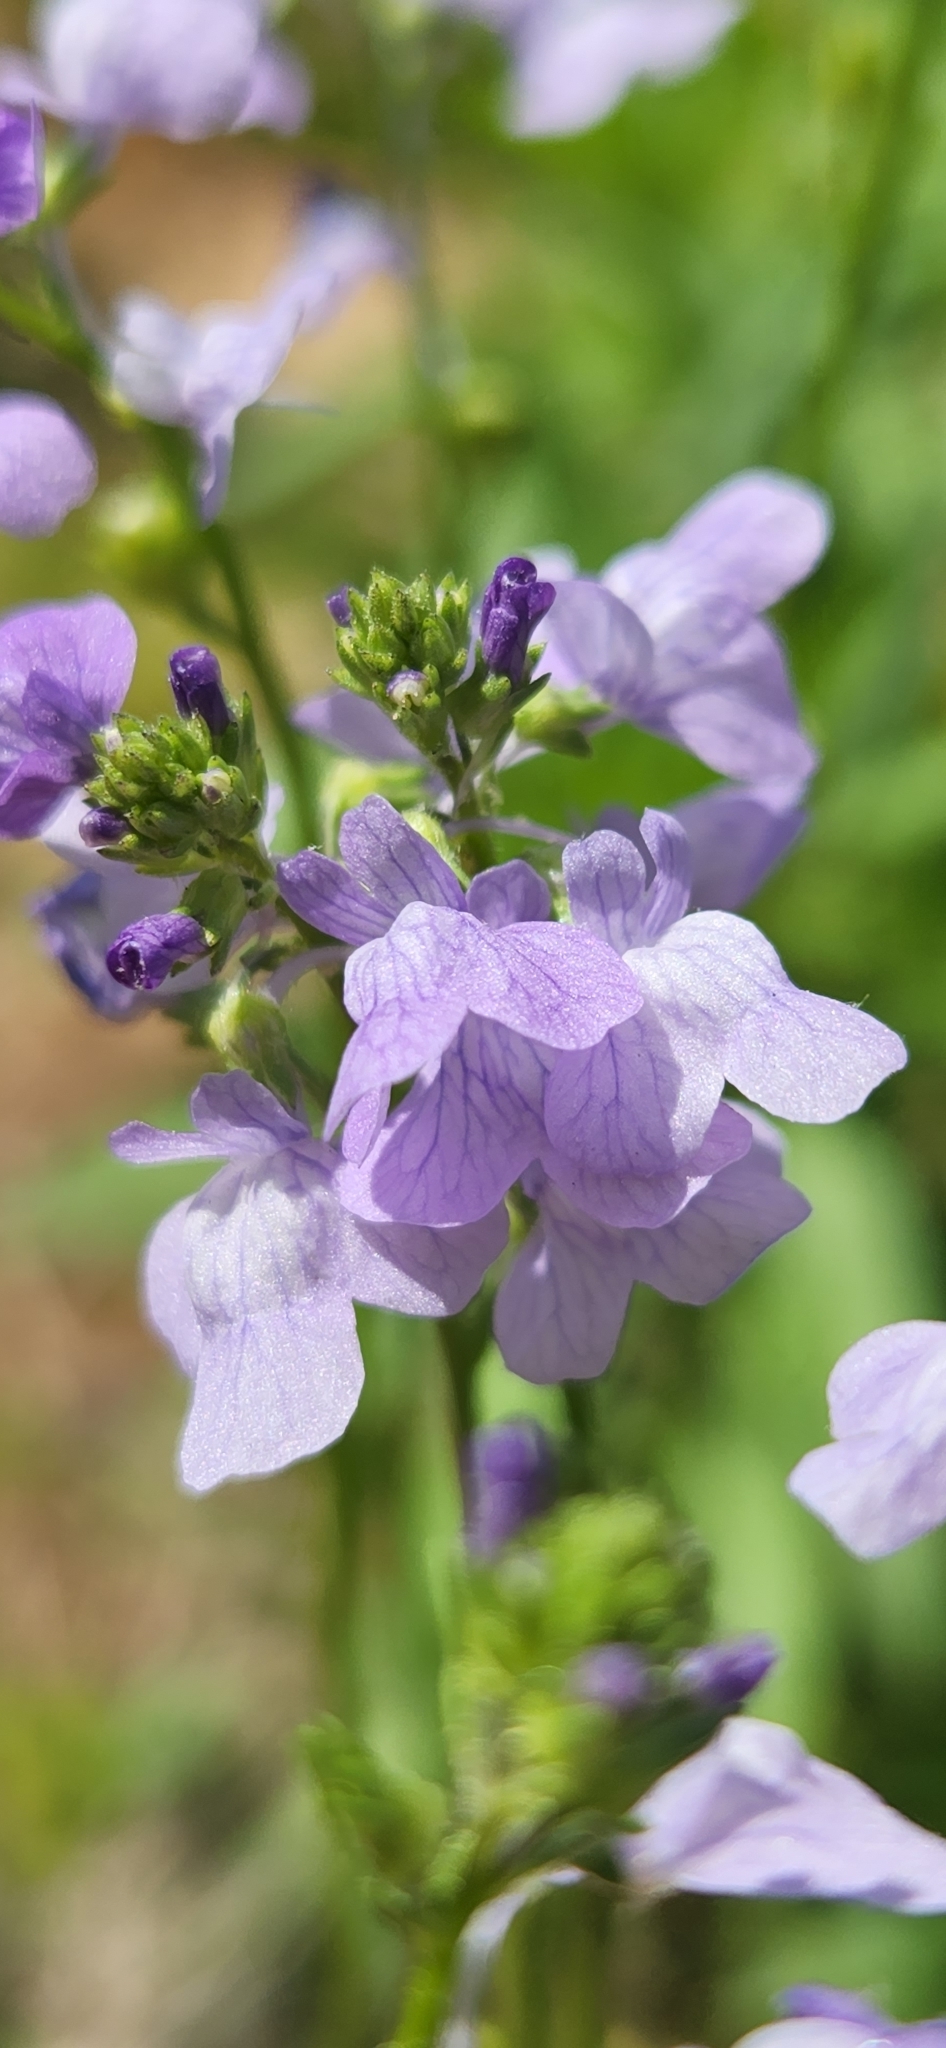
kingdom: Plantae
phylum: Tracheophyta
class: Magnoliopsida
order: Lamiales
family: Plantaginaceae
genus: Nuttallanthus
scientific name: Nuttallanthus texanus
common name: Texas toadflax
